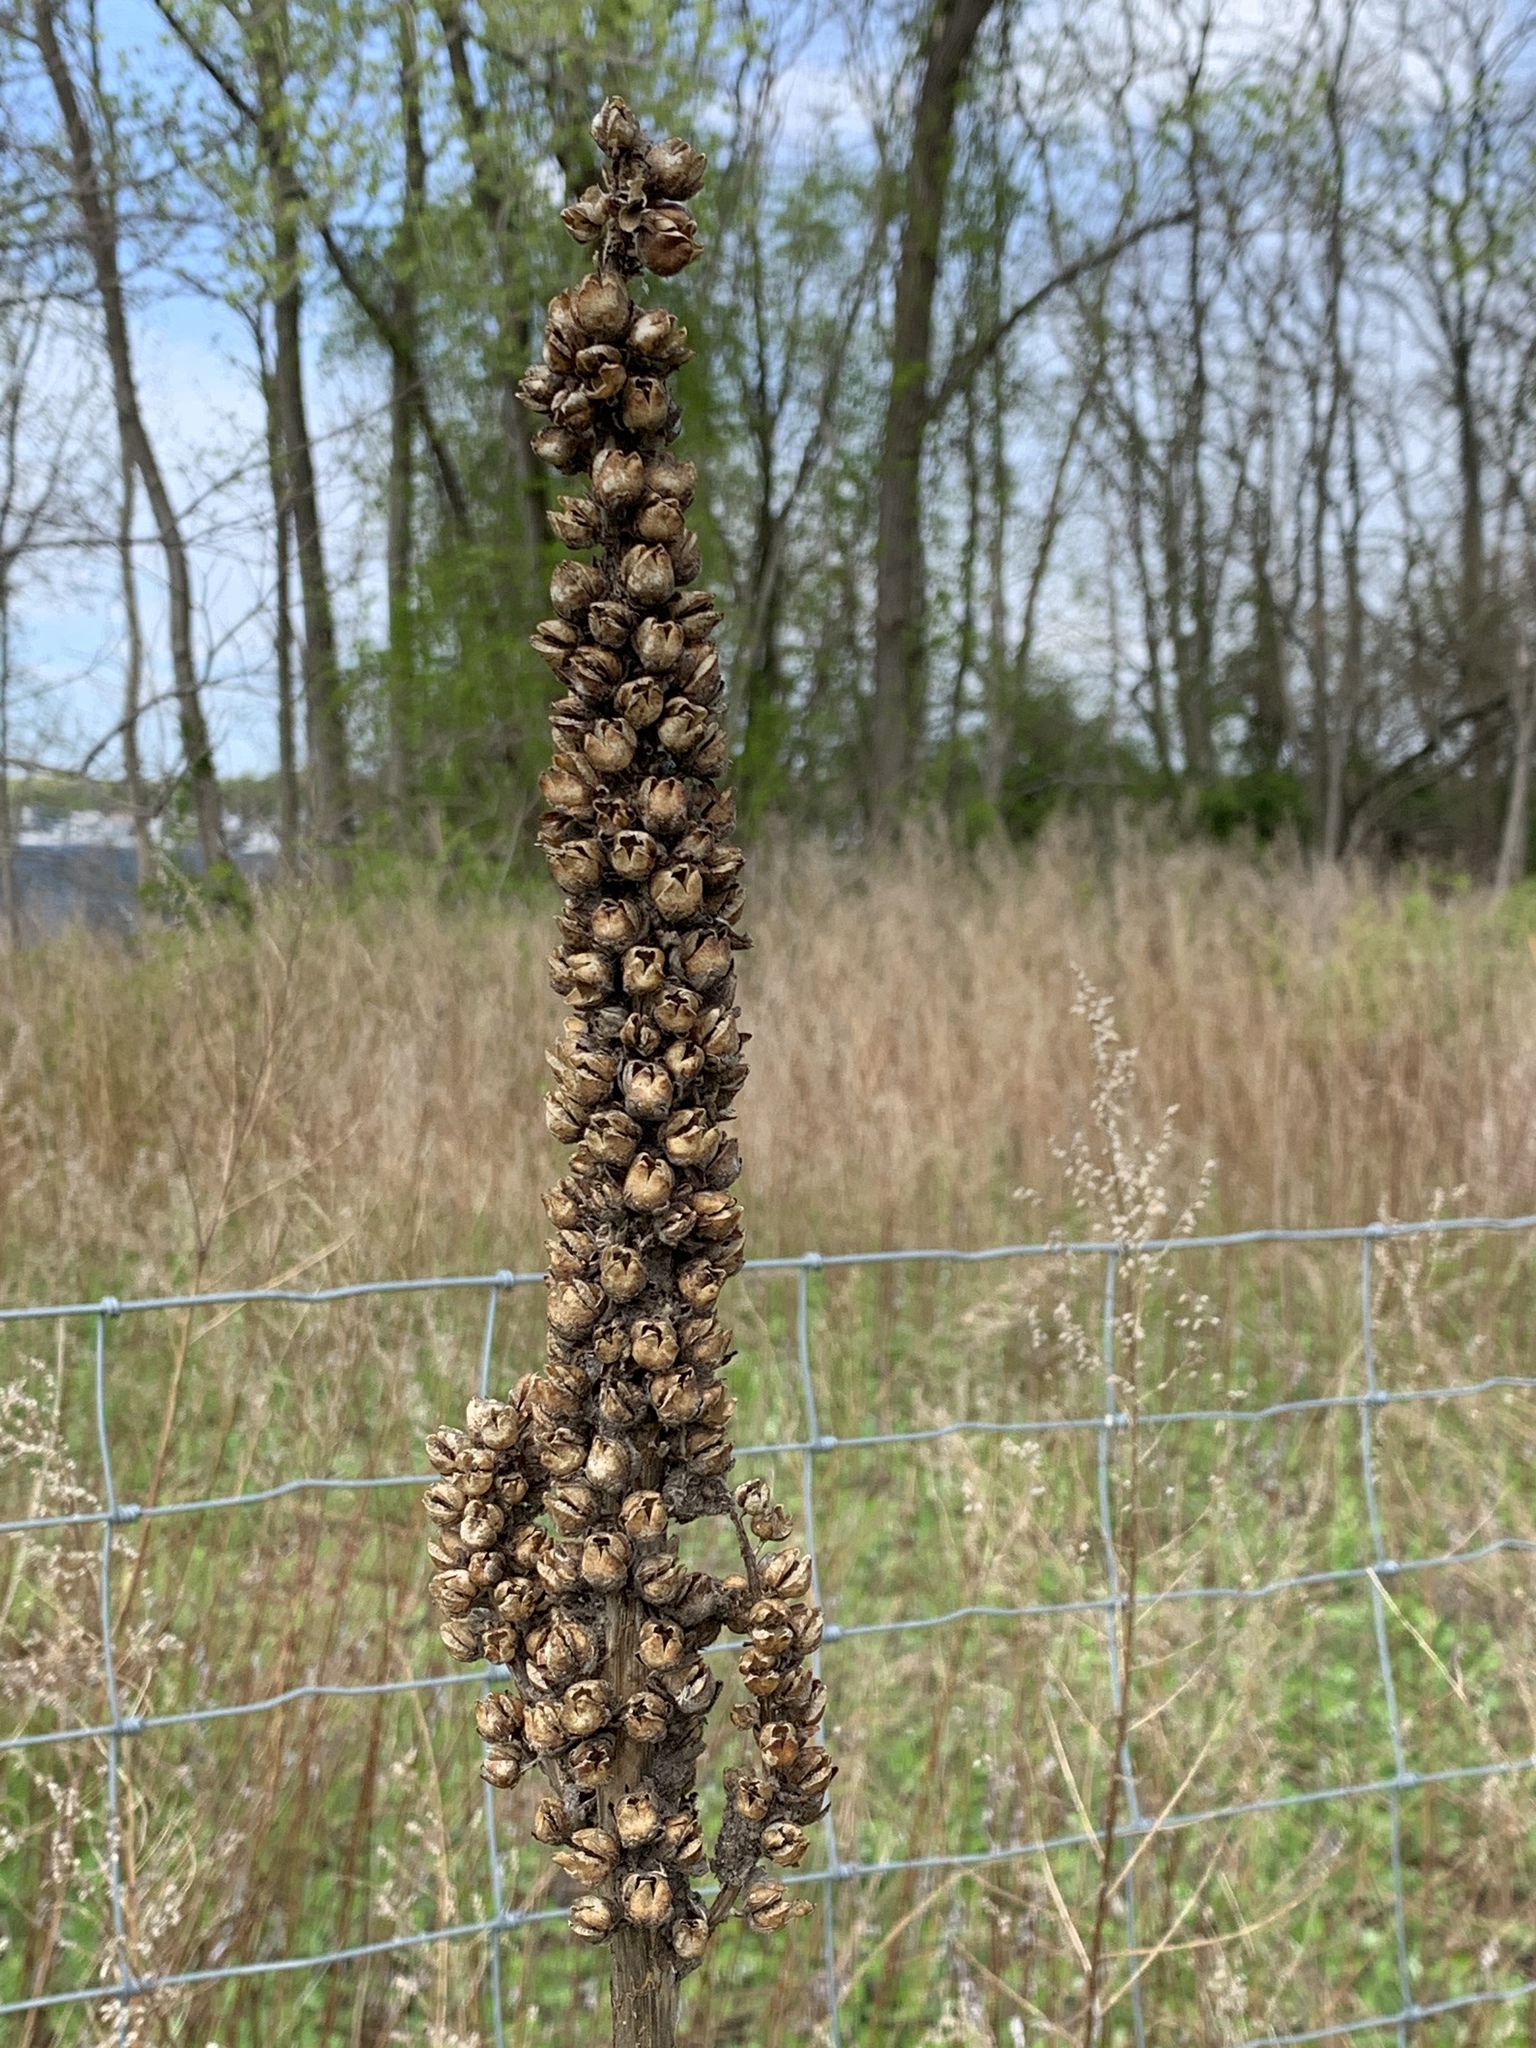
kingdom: Plantae
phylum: Tracheophyta
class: Magnoliopsida
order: Lamiales
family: Scrophulariaceae
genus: Verbascum
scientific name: Verbascum thapsus
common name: Common mullein
